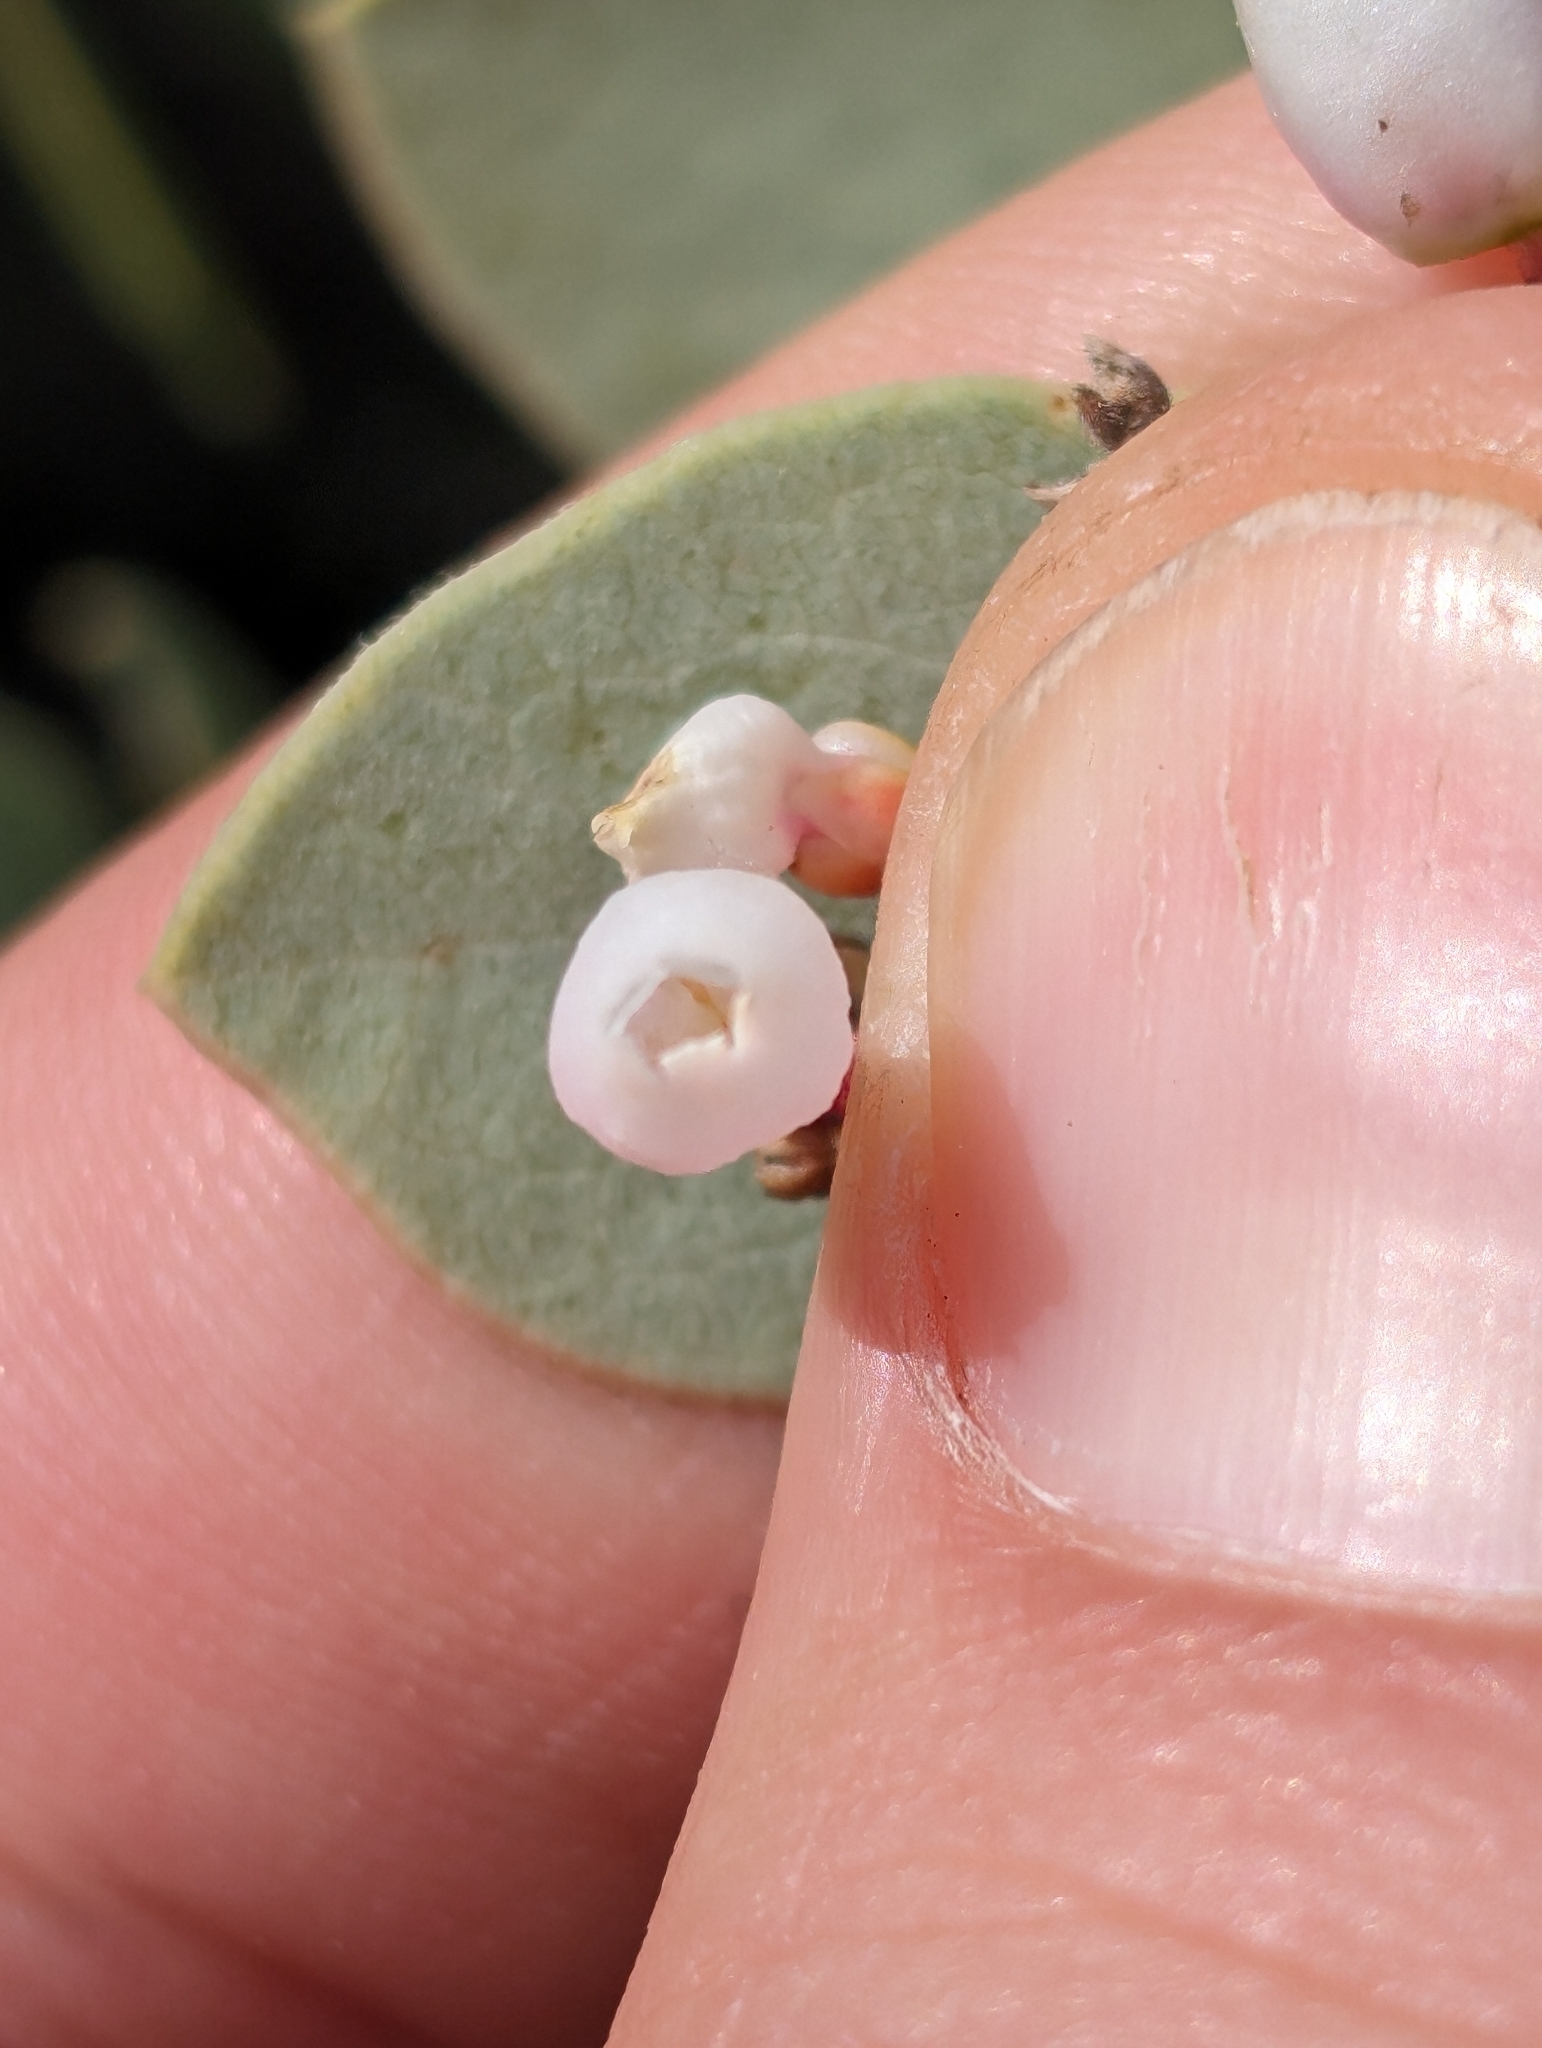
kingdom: Plantae
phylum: Tracheophyta
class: Magnoliopsida
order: Ericales
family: Ericaceae
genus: Arctostaphylos
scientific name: Arctostaphylos glauca
